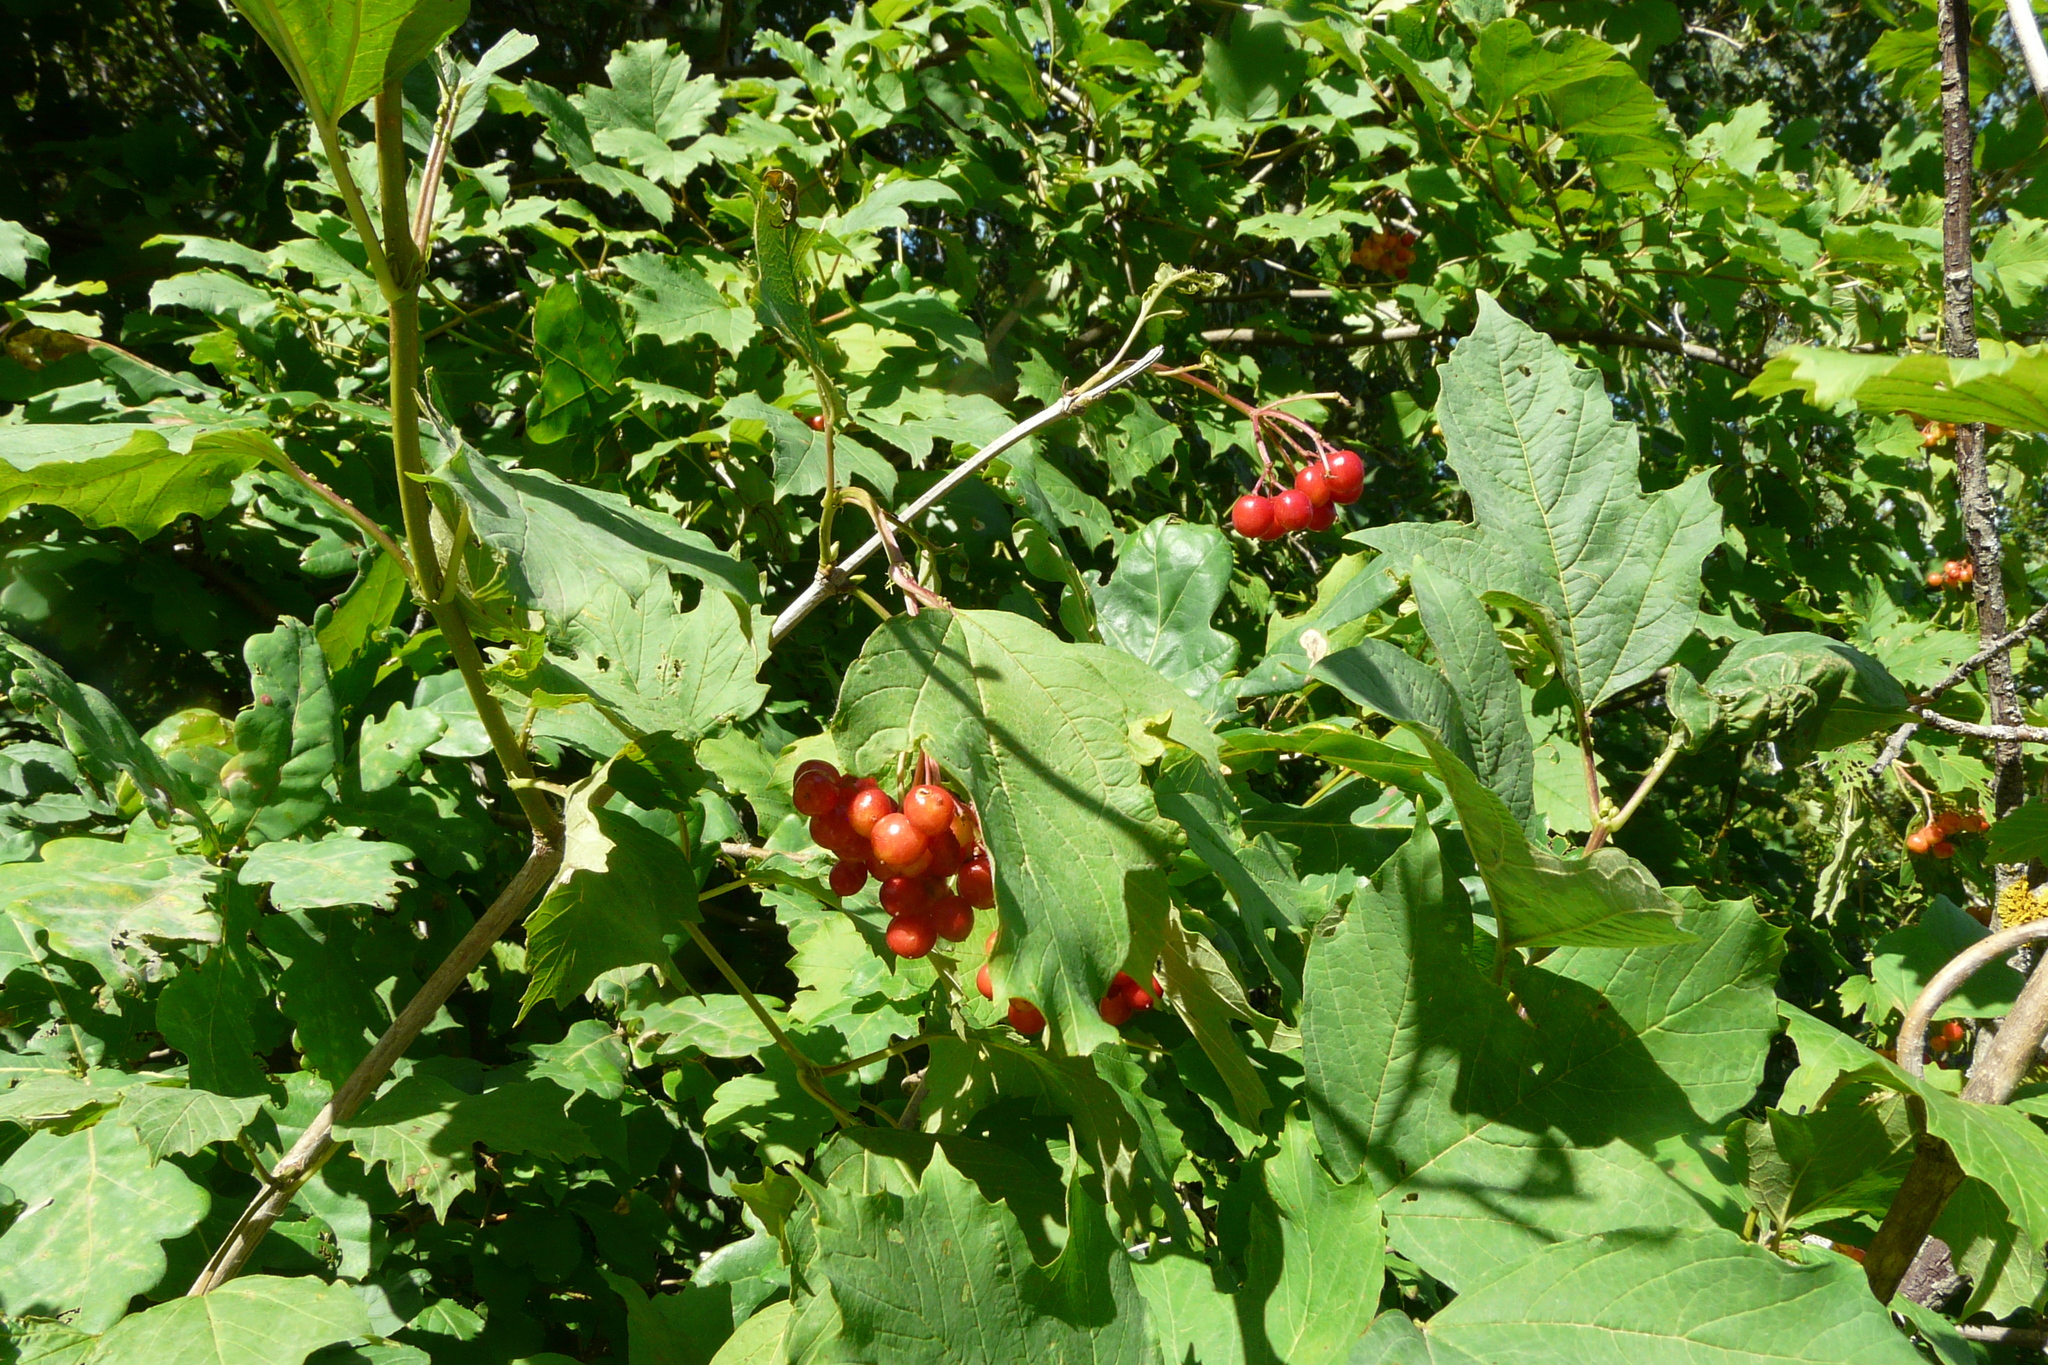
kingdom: Plantae
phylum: Tracheophyta
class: Magnoliopsida
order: Dipsacales
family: Viburnaceae
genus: Viburnum
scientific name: Viburnum opulus
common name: Guelder-rose
